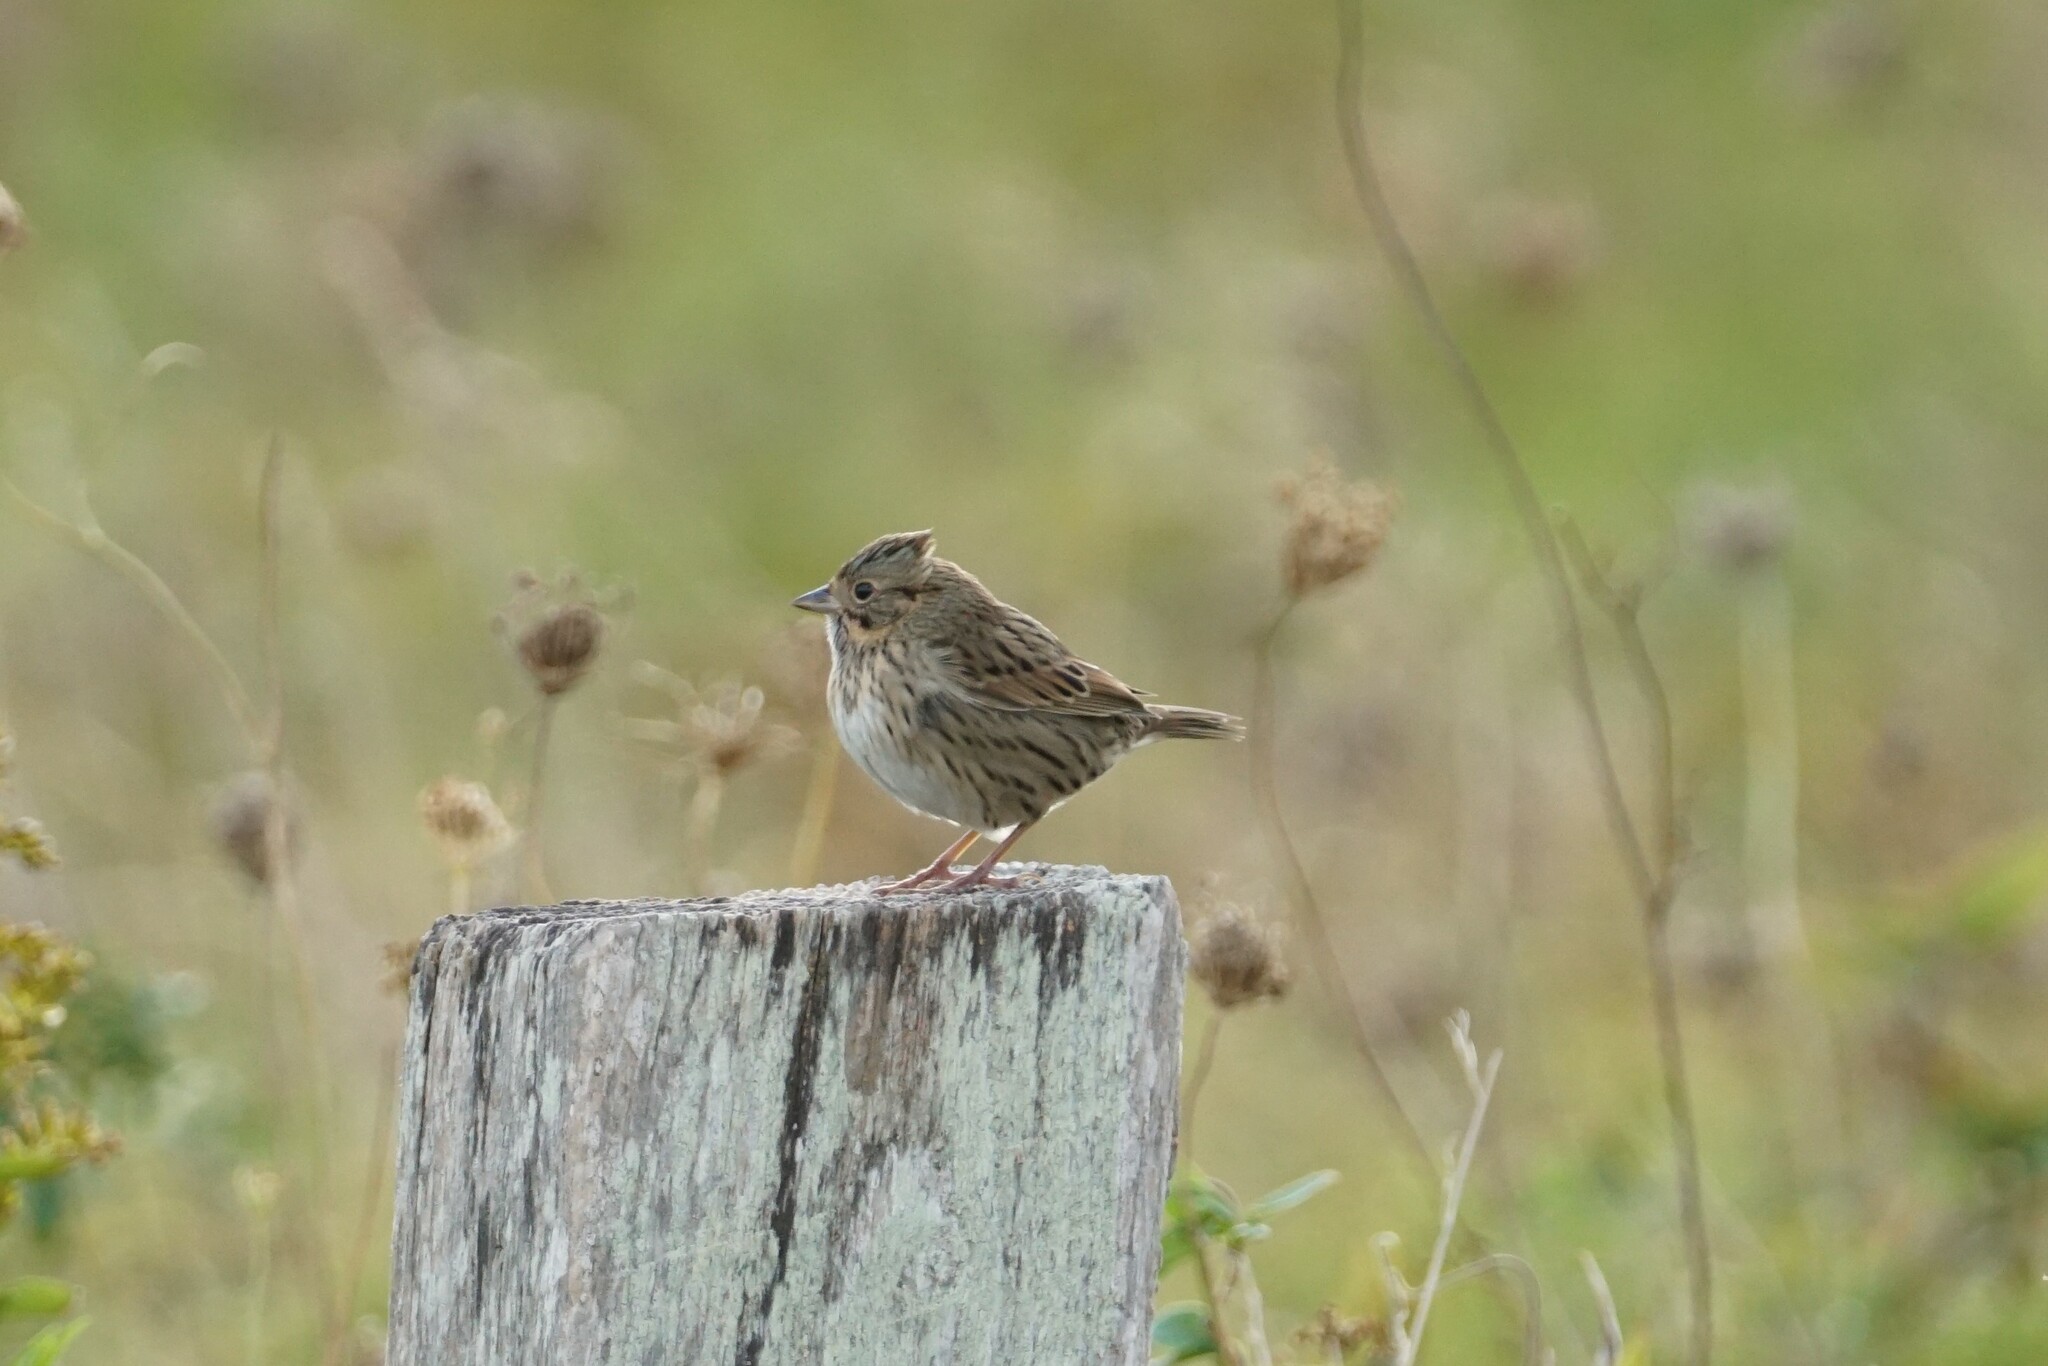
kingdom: Animalia
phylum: Chordata
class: Aves
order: Passeriformes
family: Passerellidae
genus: Melospiza
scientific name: Melospiza lincolnii
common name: Lincoln's sparrow
